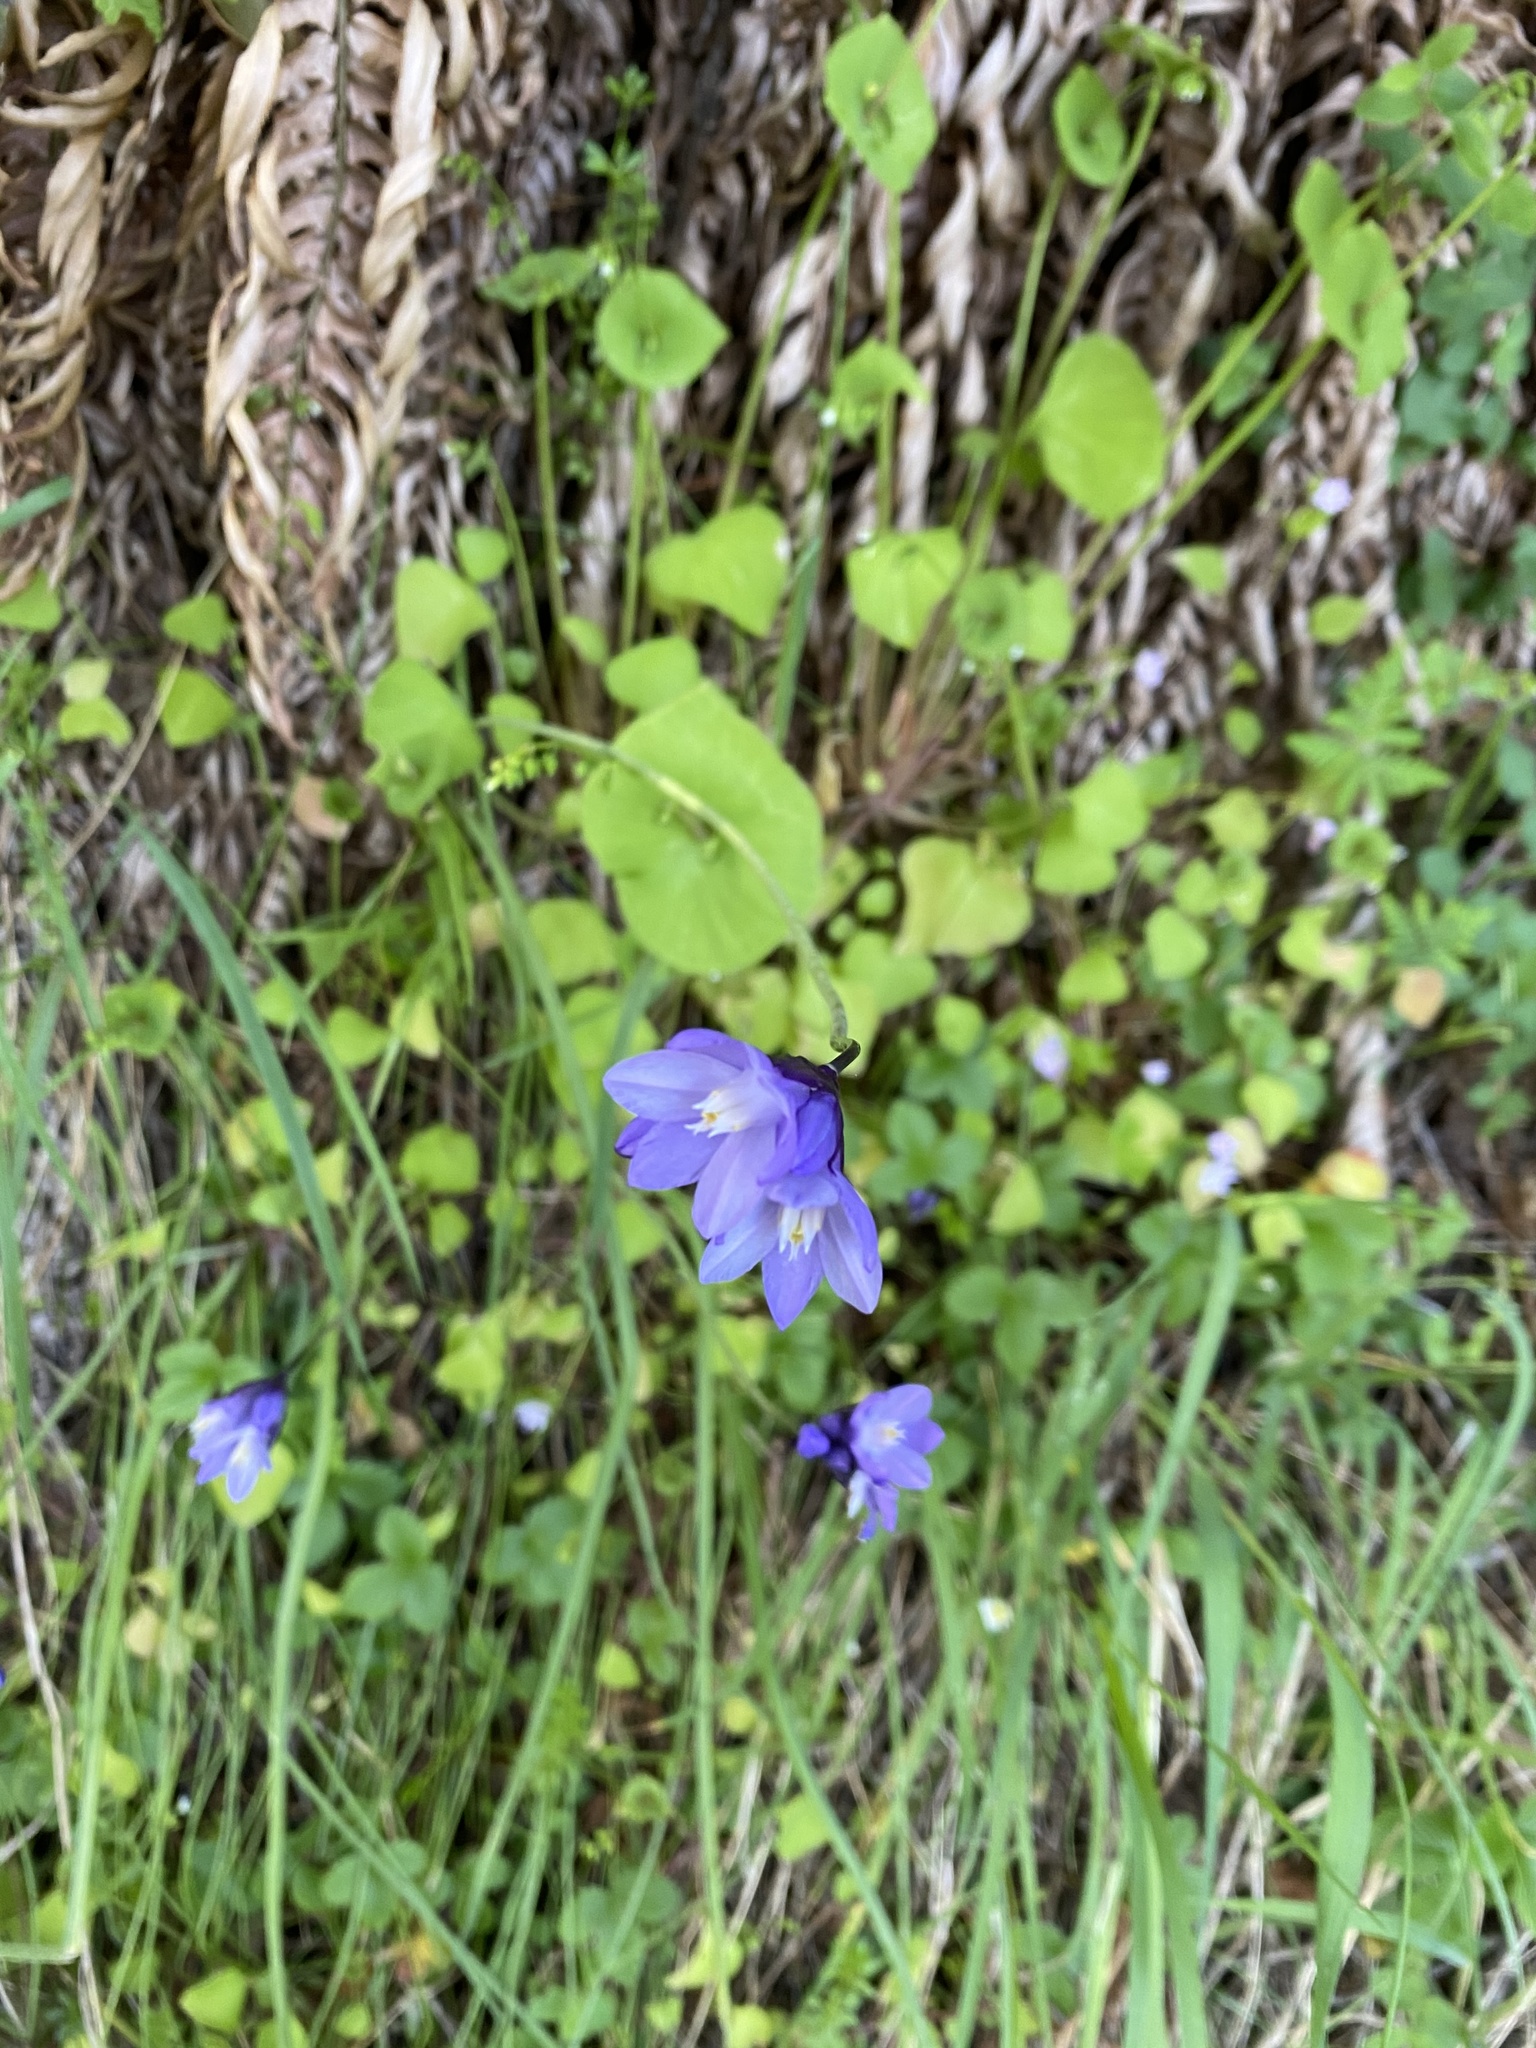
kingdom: Plantae
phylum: Tracheophyta
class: Liliopsida
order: Asparagales
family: Asparagaceae
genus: Dipterostemon
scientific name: Dipterostemon capitatus
